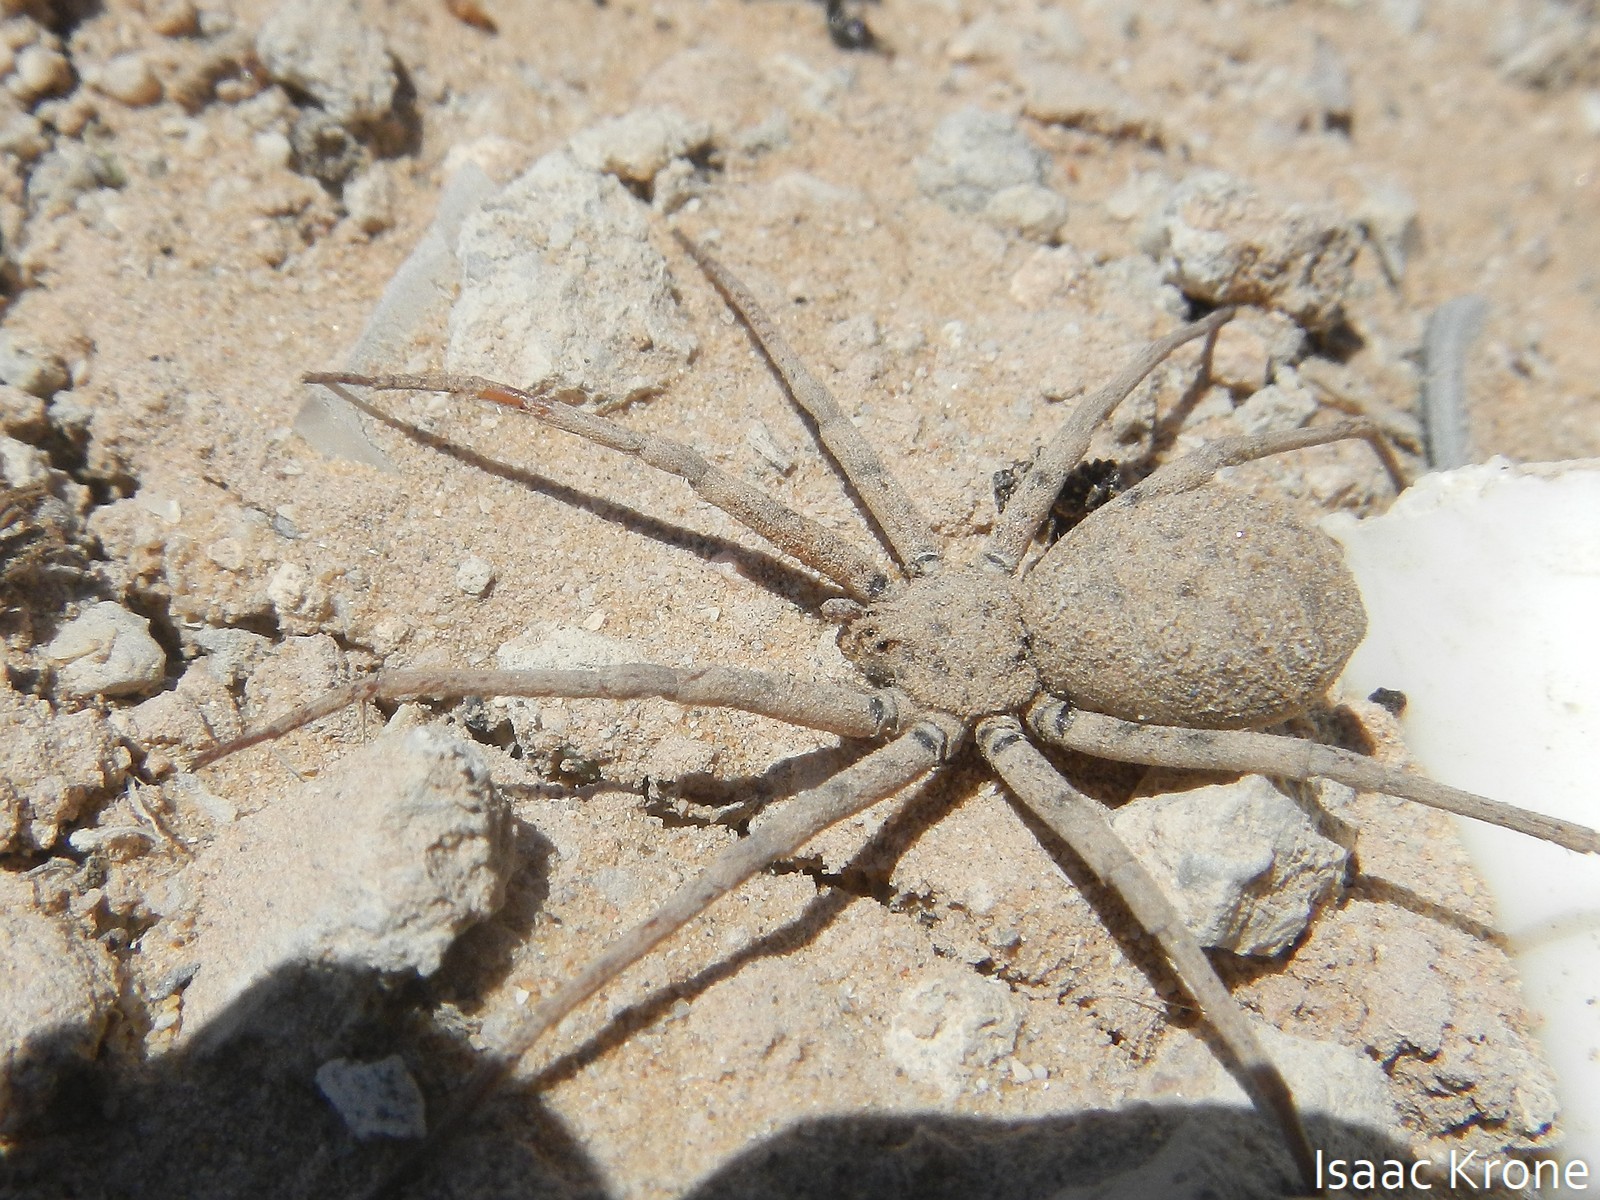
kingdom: Animalia
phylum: Arthropoda
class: Arachnida
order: Araneae
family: Homalonychidae
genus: Homalonychus
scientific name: Homalonychus selenopoides
